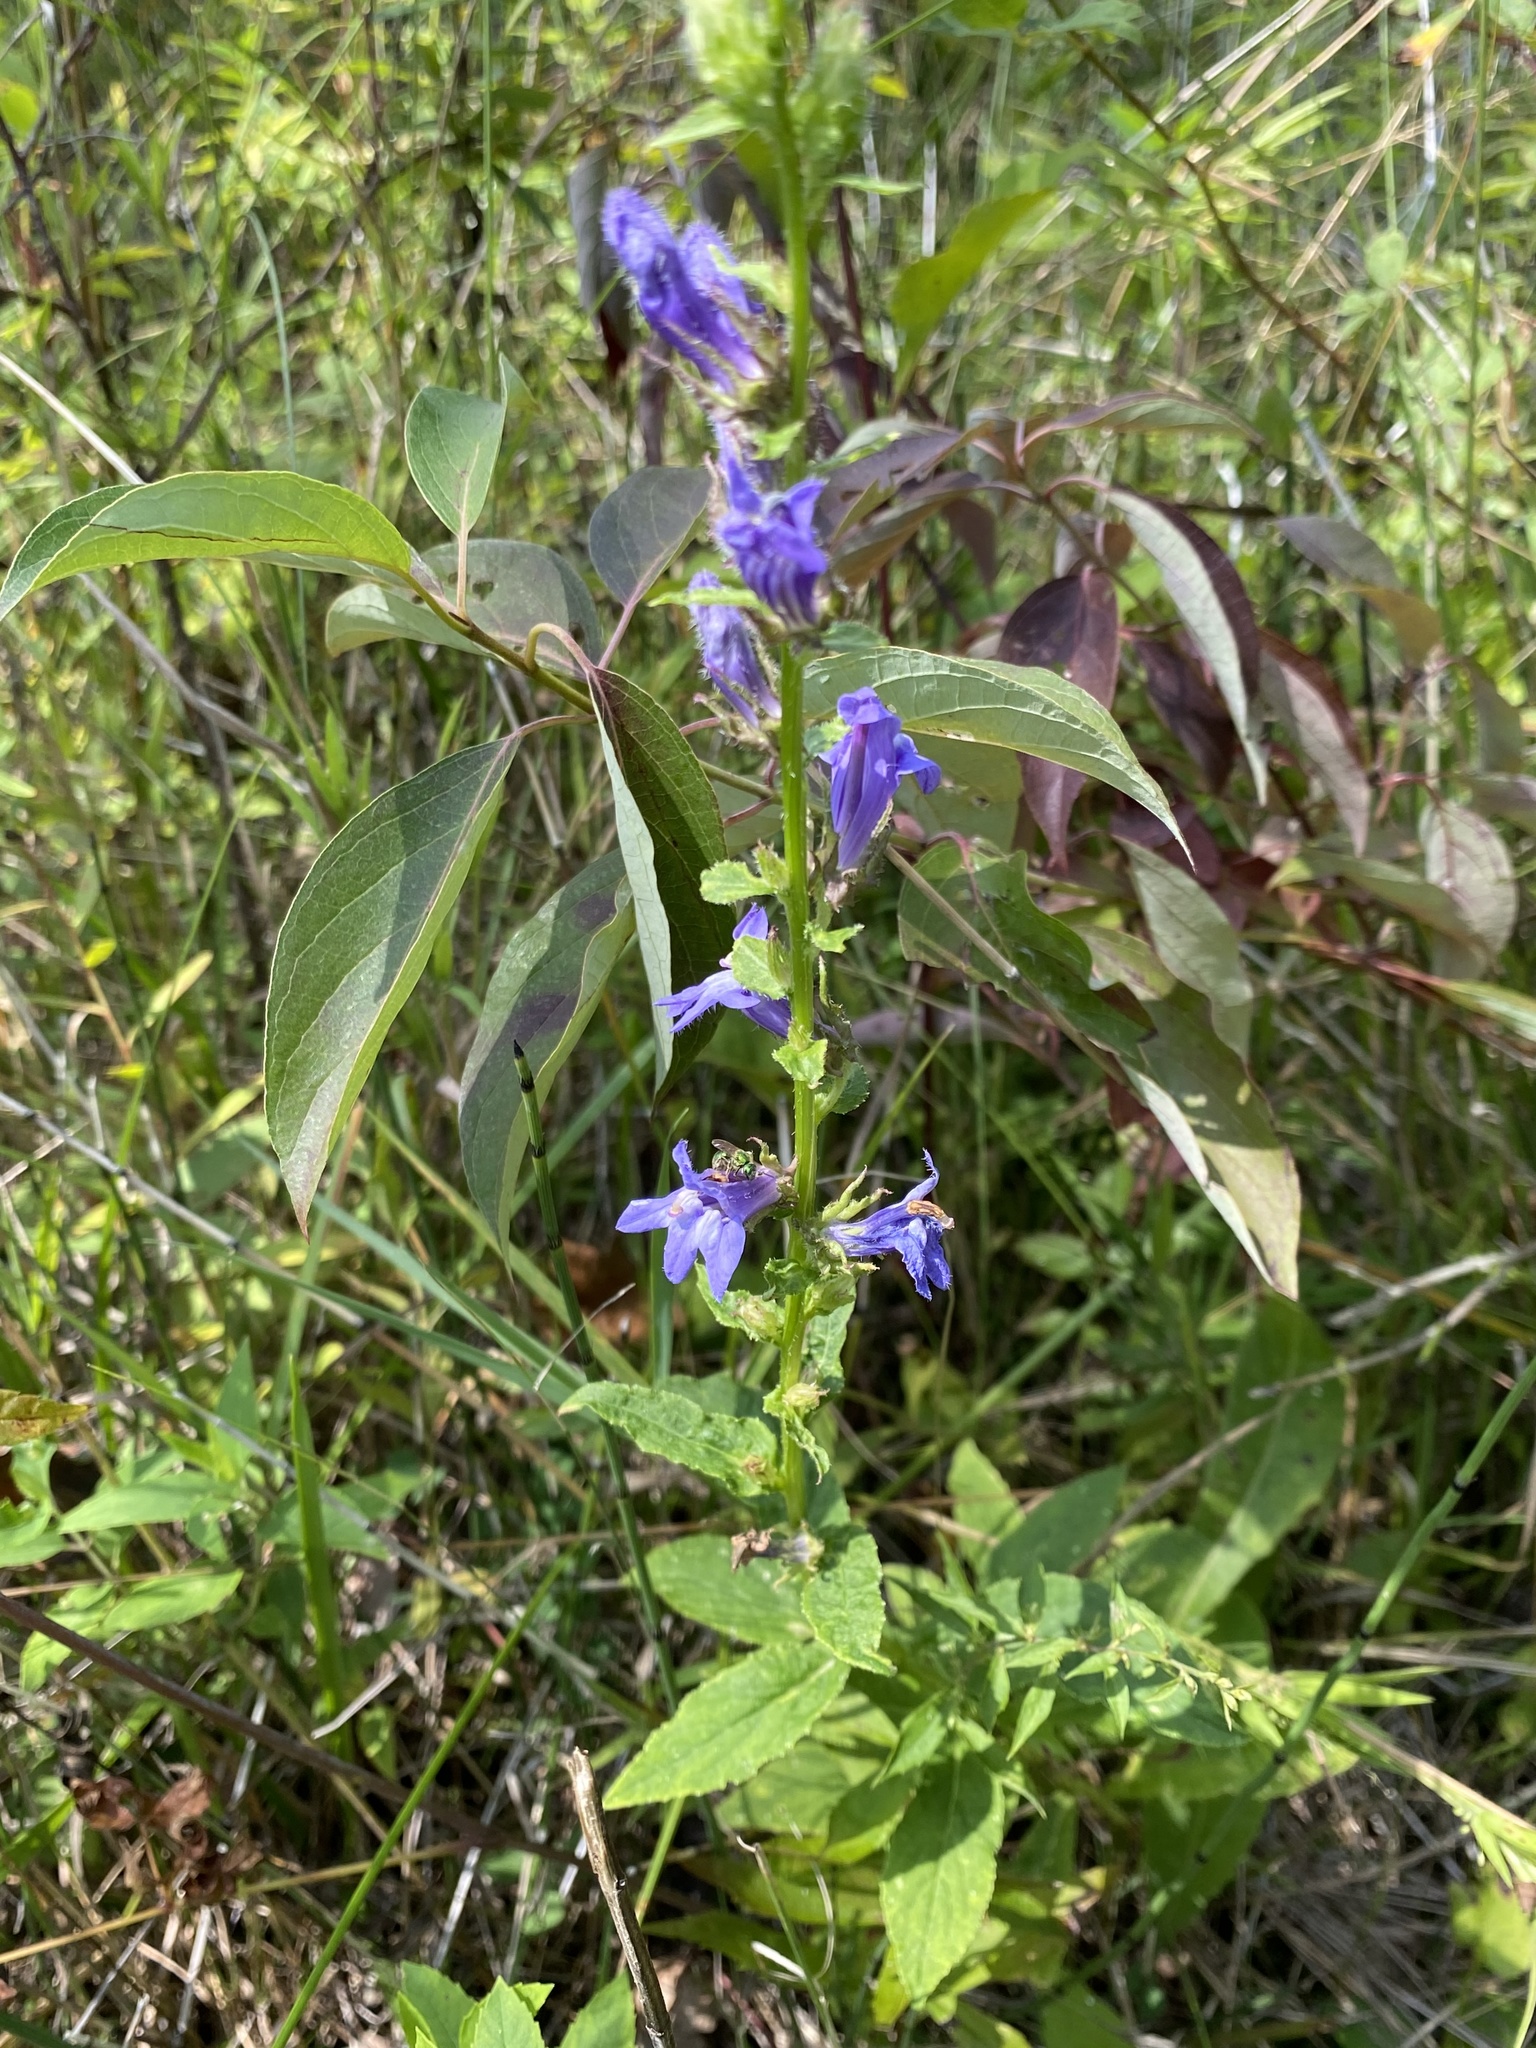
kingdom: Plantae
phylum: Tracheophyta
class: Magnoliopsida
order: Asterales
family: Campanulaceae
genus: Lobelia
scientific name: Lobelia siphilitica
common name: Great lobelia
